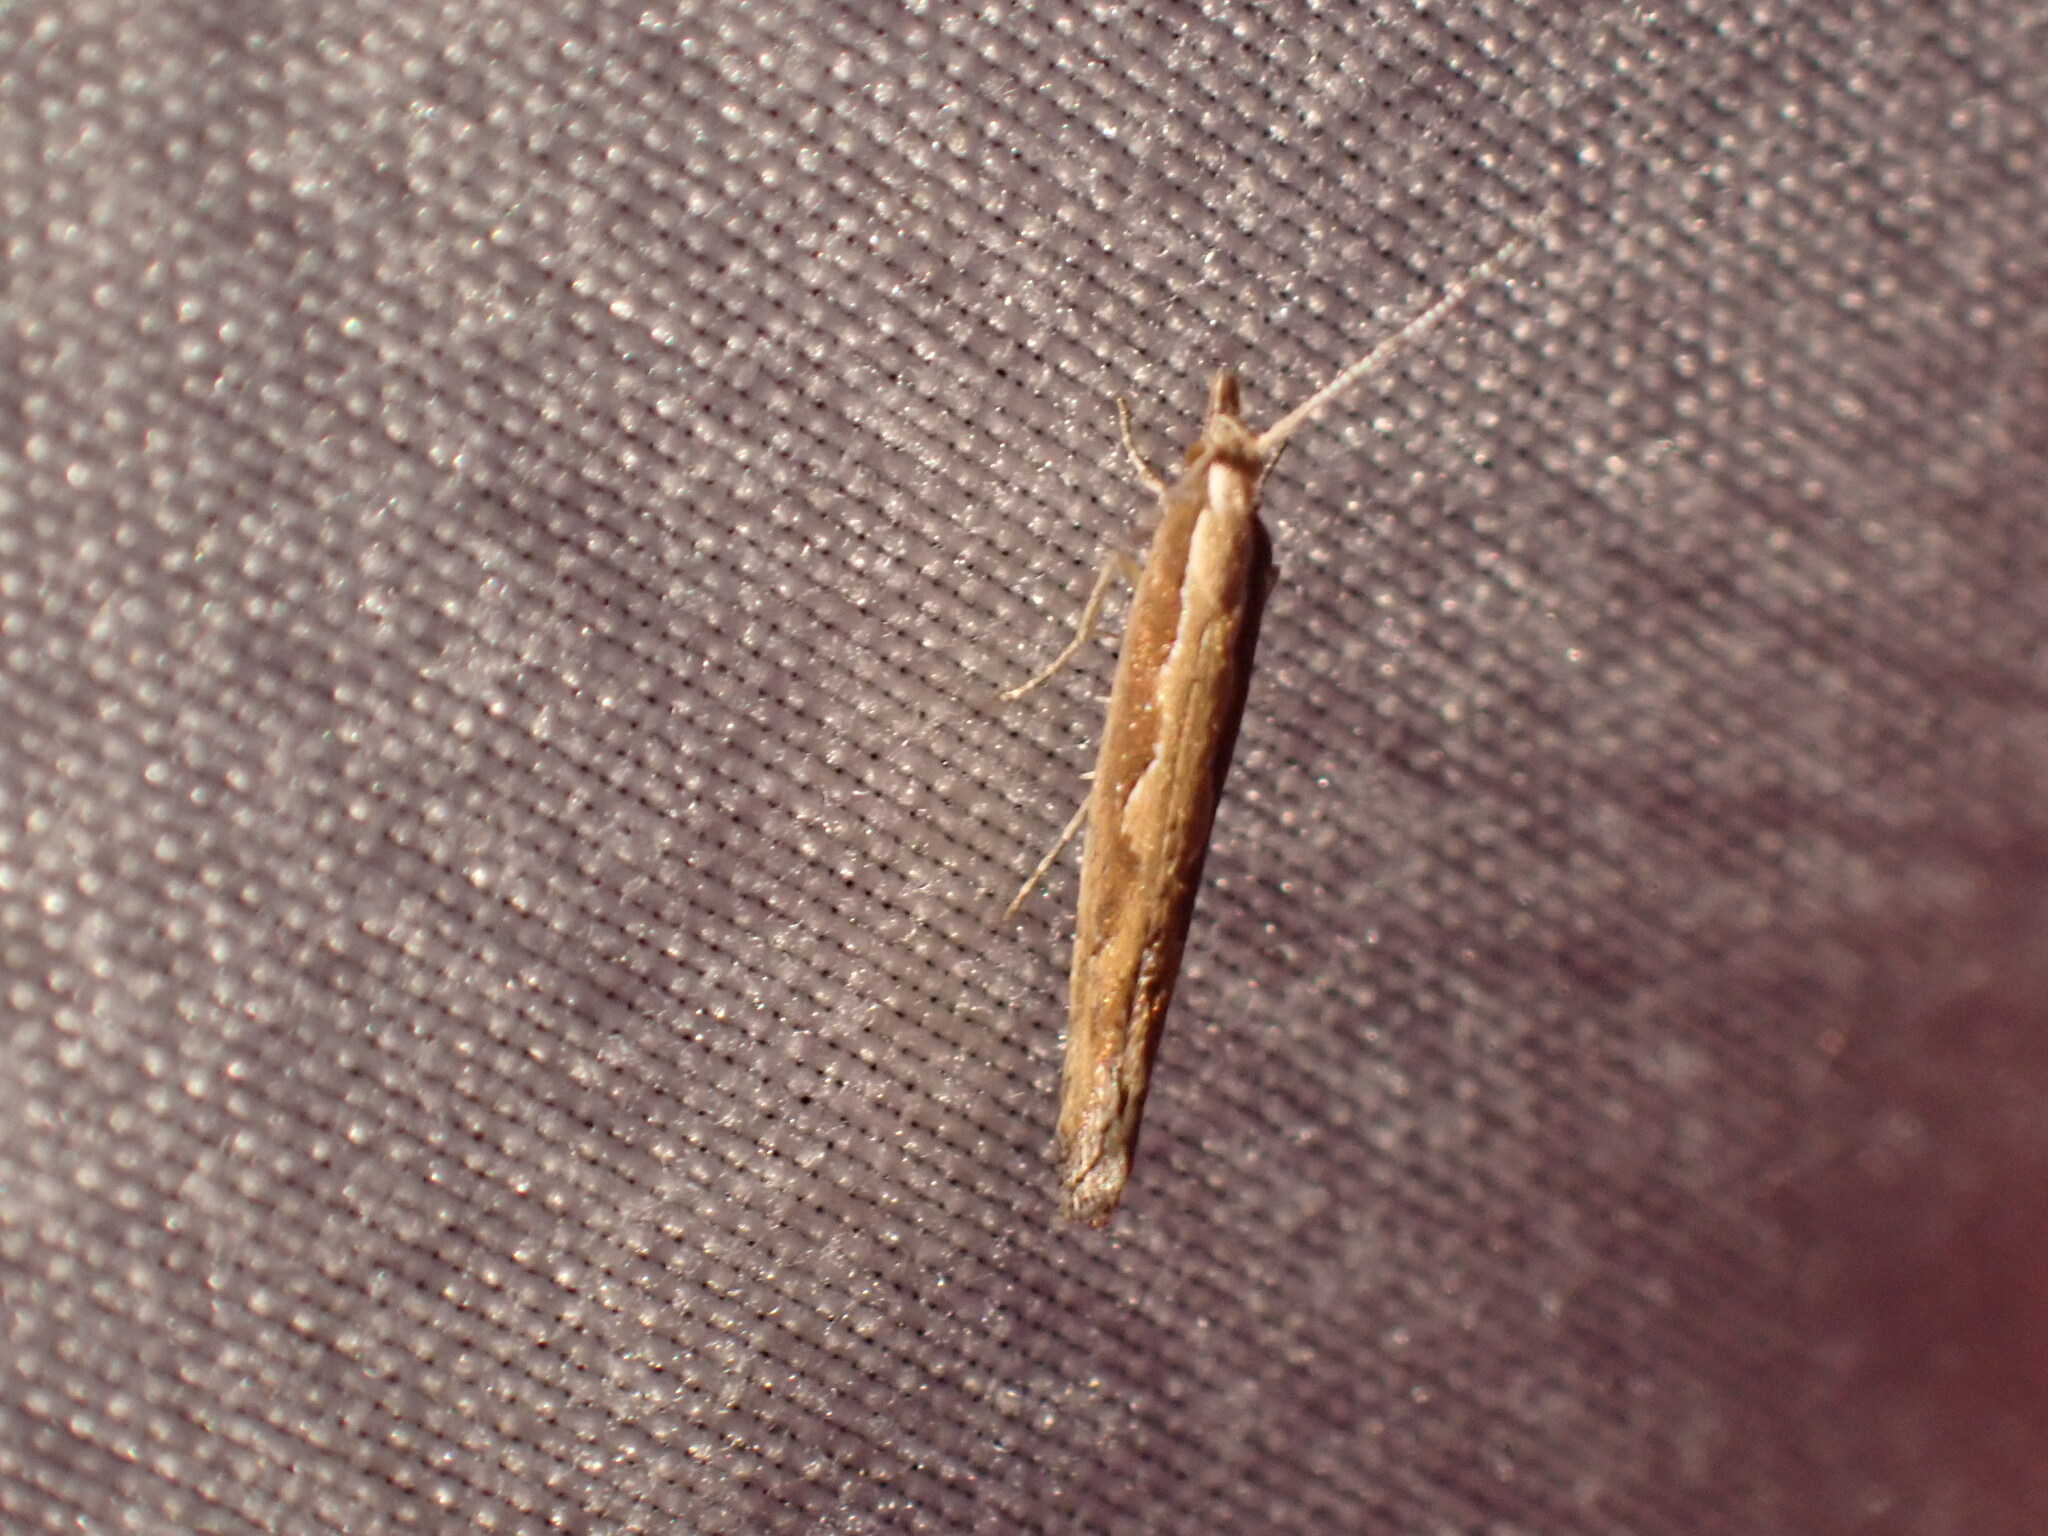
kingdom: Animalia
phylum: Arthropoda
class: Insecta
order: Lepidoptera
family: Plutellidae
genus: Plutella
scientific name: Plutella xylostella
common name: Diamond-back moth
